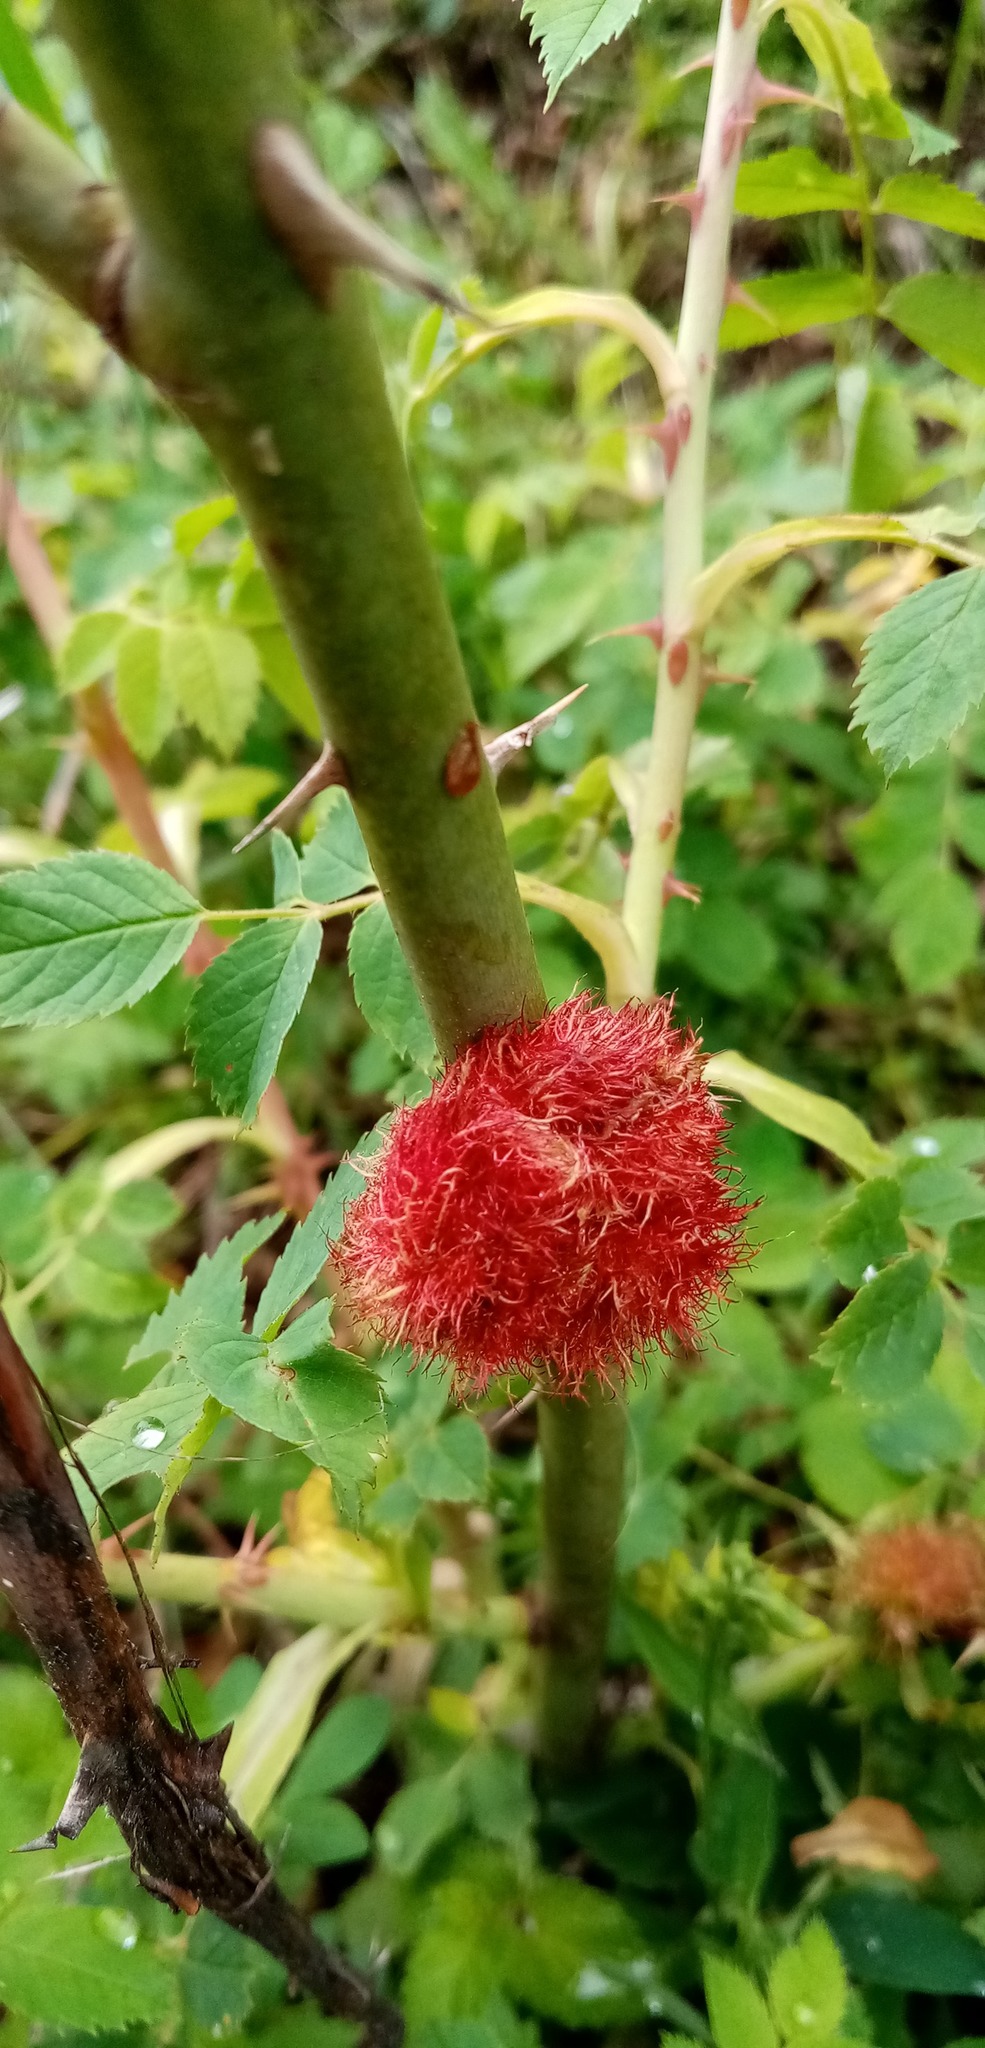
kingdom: Animalia
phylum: Arthropoda
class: Insecta
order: Hymenoptera
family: Cynipidae
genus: Diplolepis
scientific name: Diplolepis rosae
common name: Bedeguar gall
